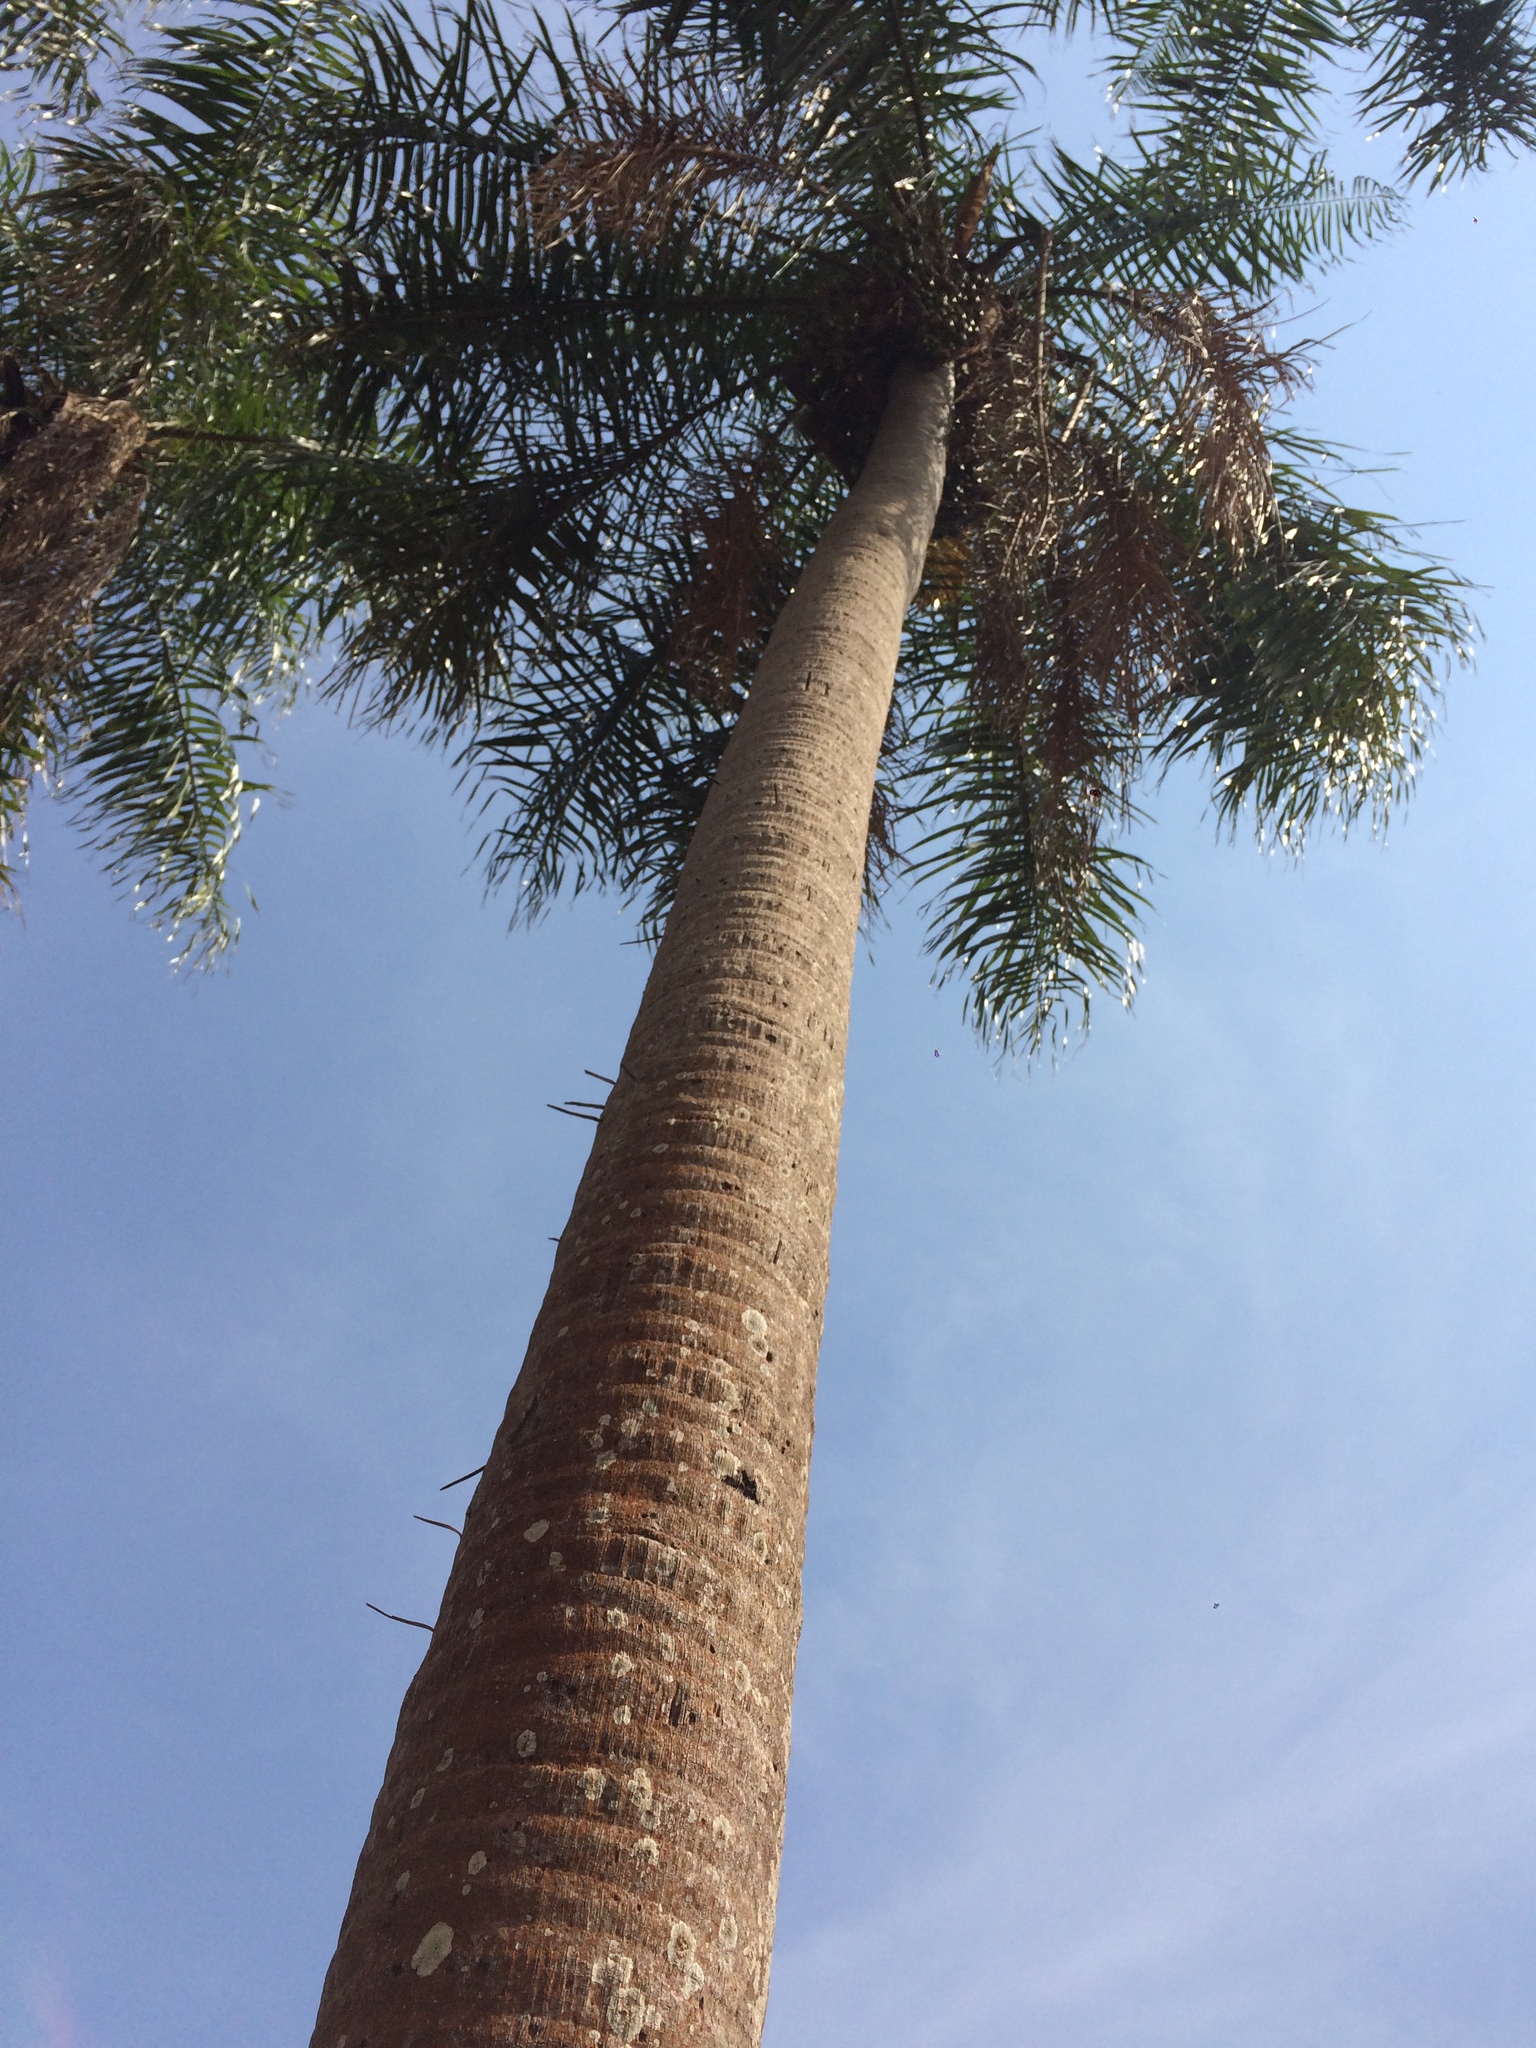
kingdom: Plantae
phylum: Tracheophyta
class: Liliopsida
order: Arecales
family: Arecaceae
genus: Acrocomia
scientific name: Acrocomia aculeata
